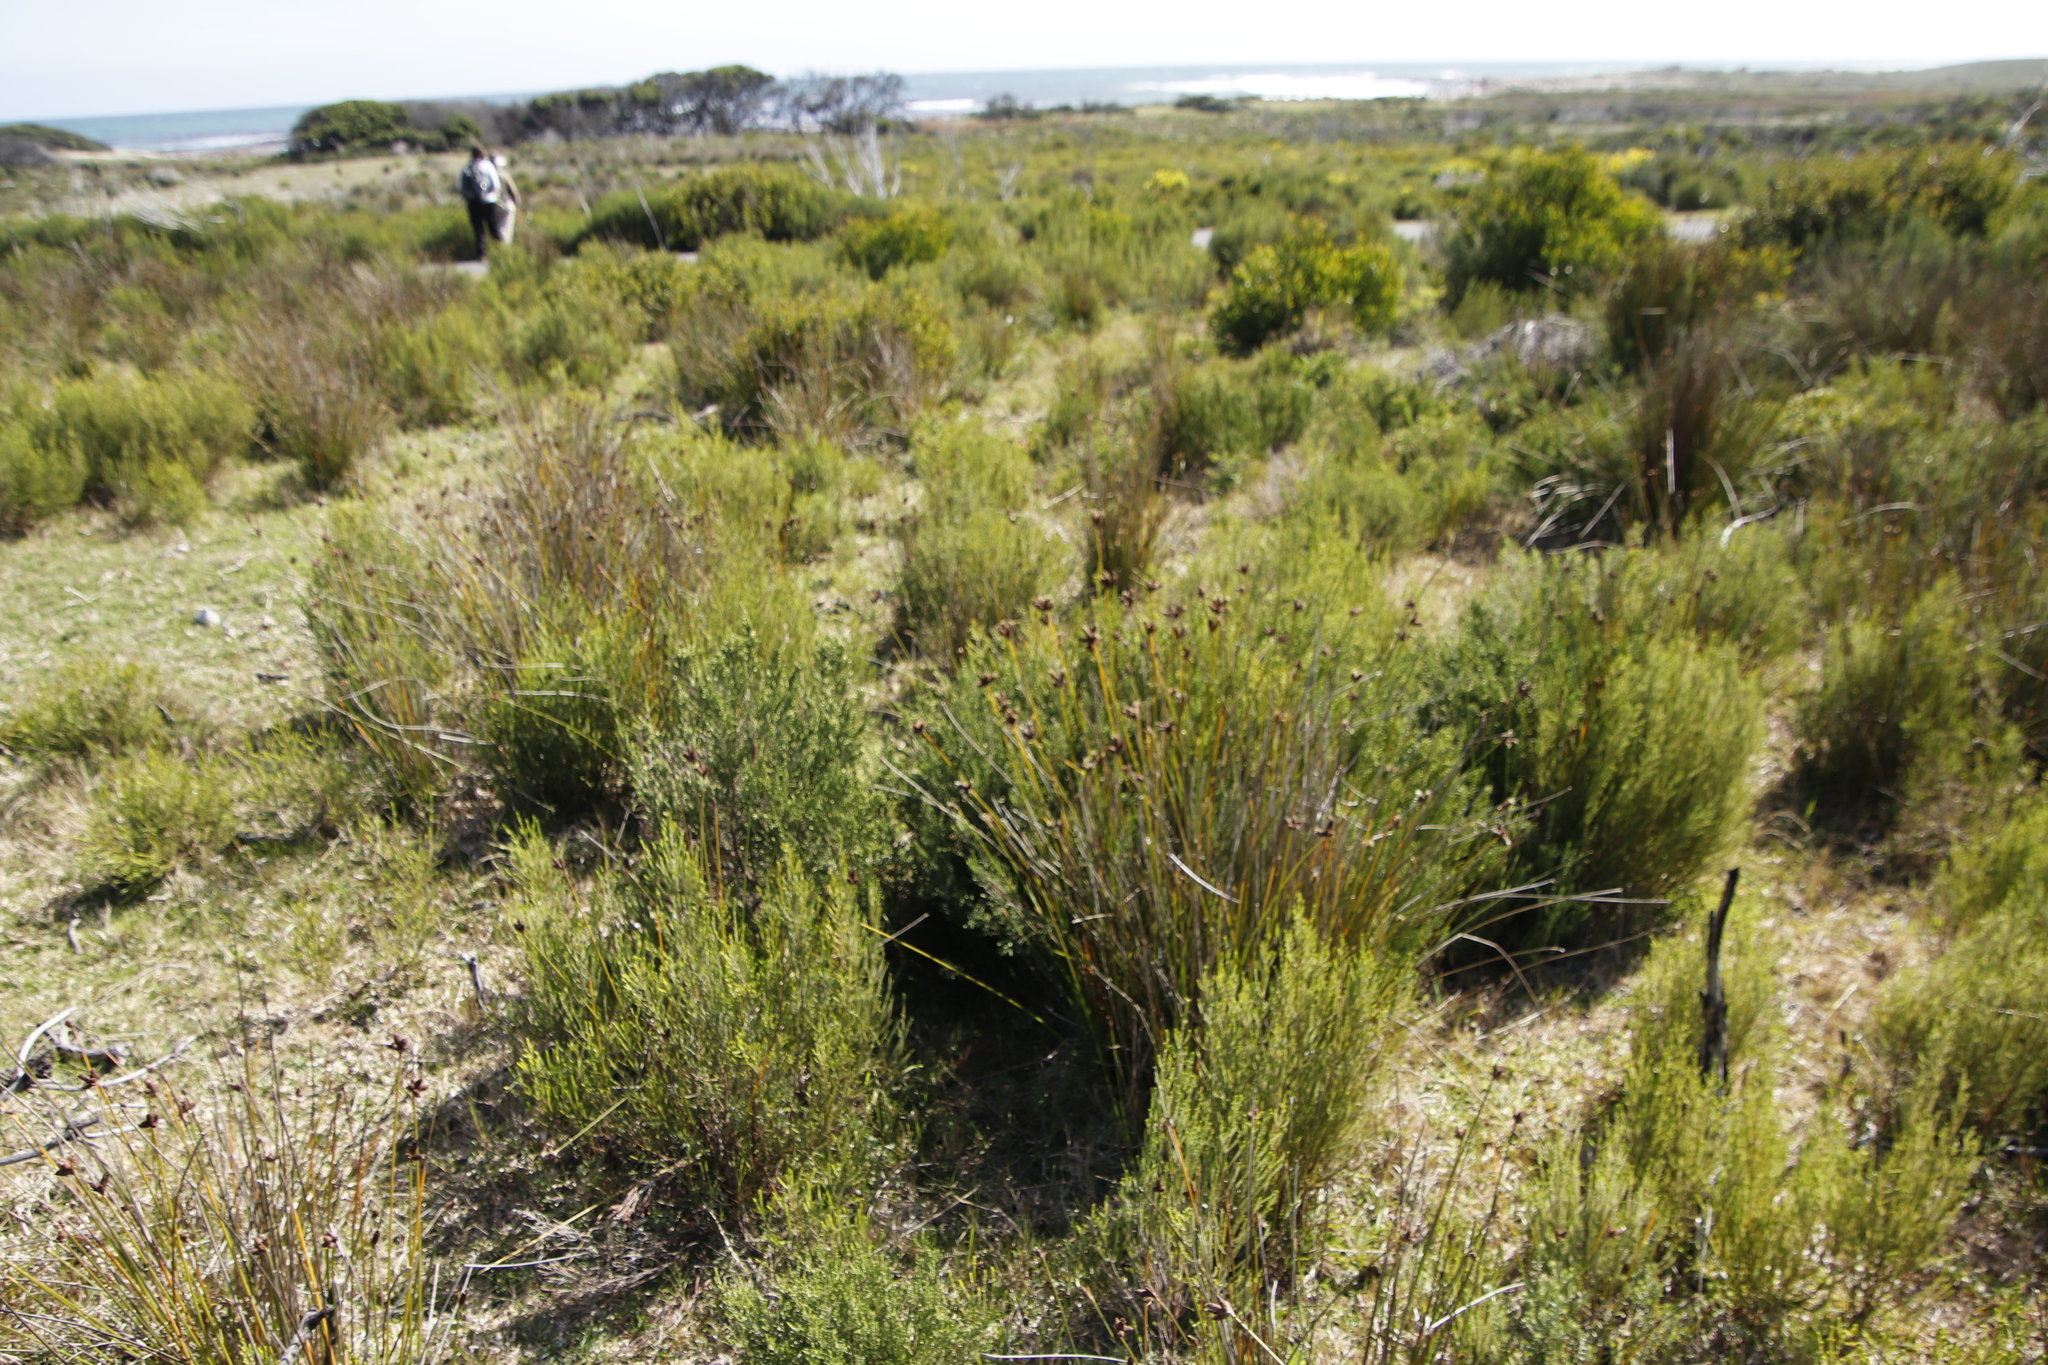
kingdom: Plantae
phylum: Tracheophyta
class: Liliopsida
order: Poales
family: Cyperaceae
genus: Hellmuthia
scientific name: Hellmuthia membranacea
